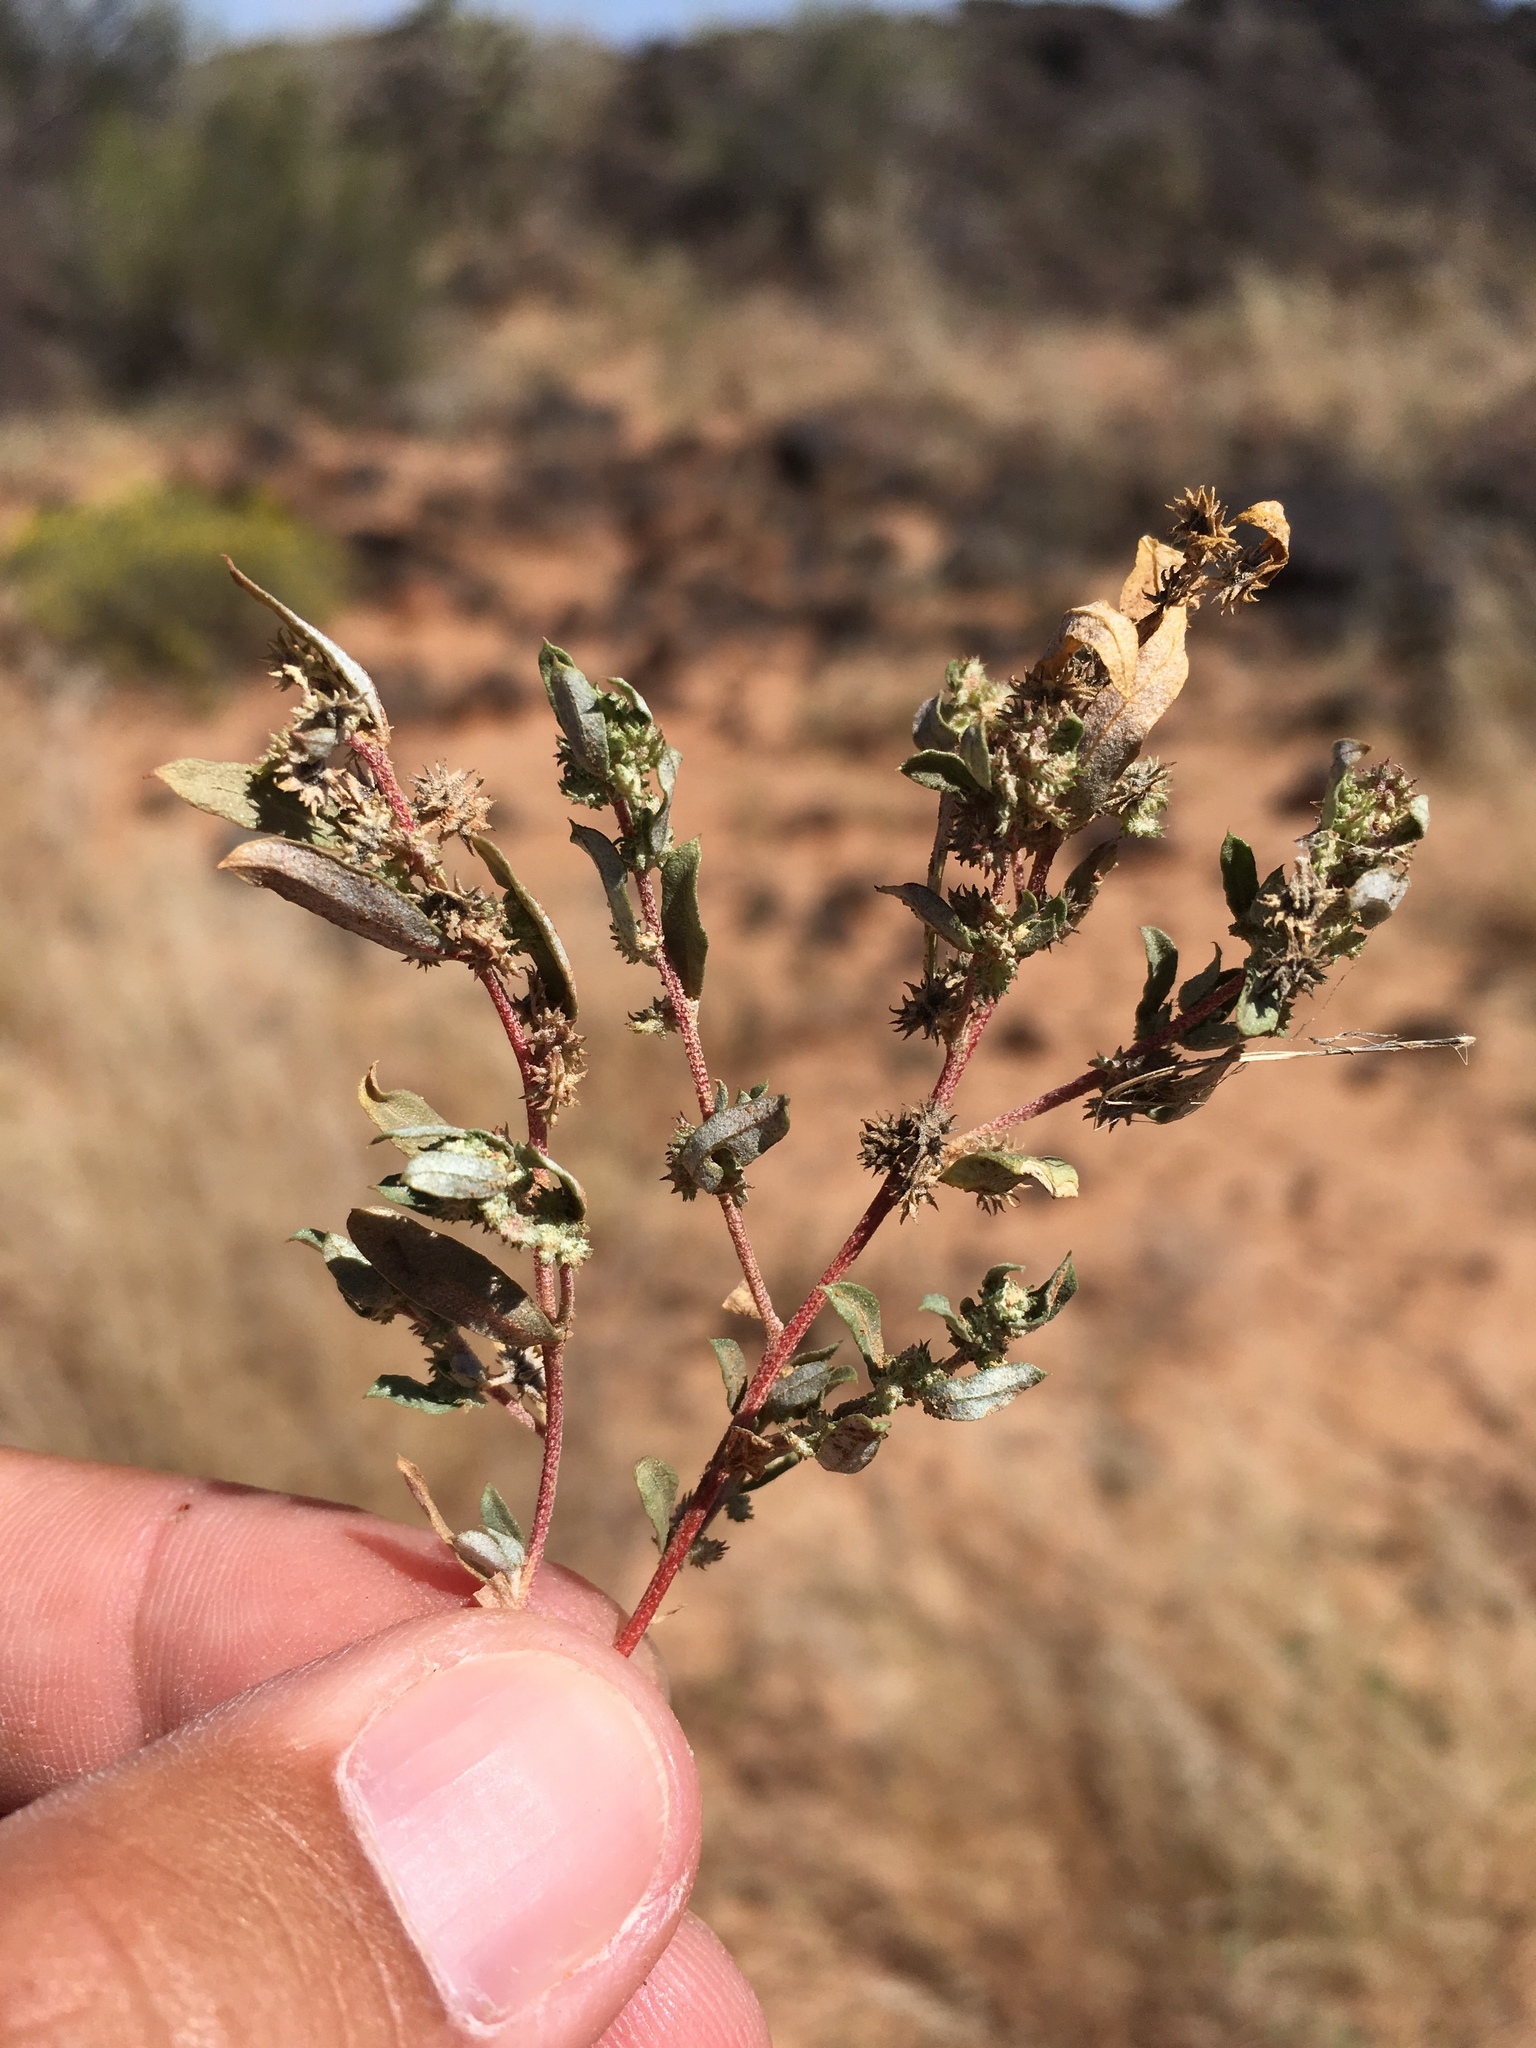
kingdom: Plantae
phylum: Tracheophyta
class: Magnoliopsida
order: Caryophyllales
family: Amaranthaceae
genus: Atriplex
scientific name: Atriplex elegans
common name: Wheelscale orach
